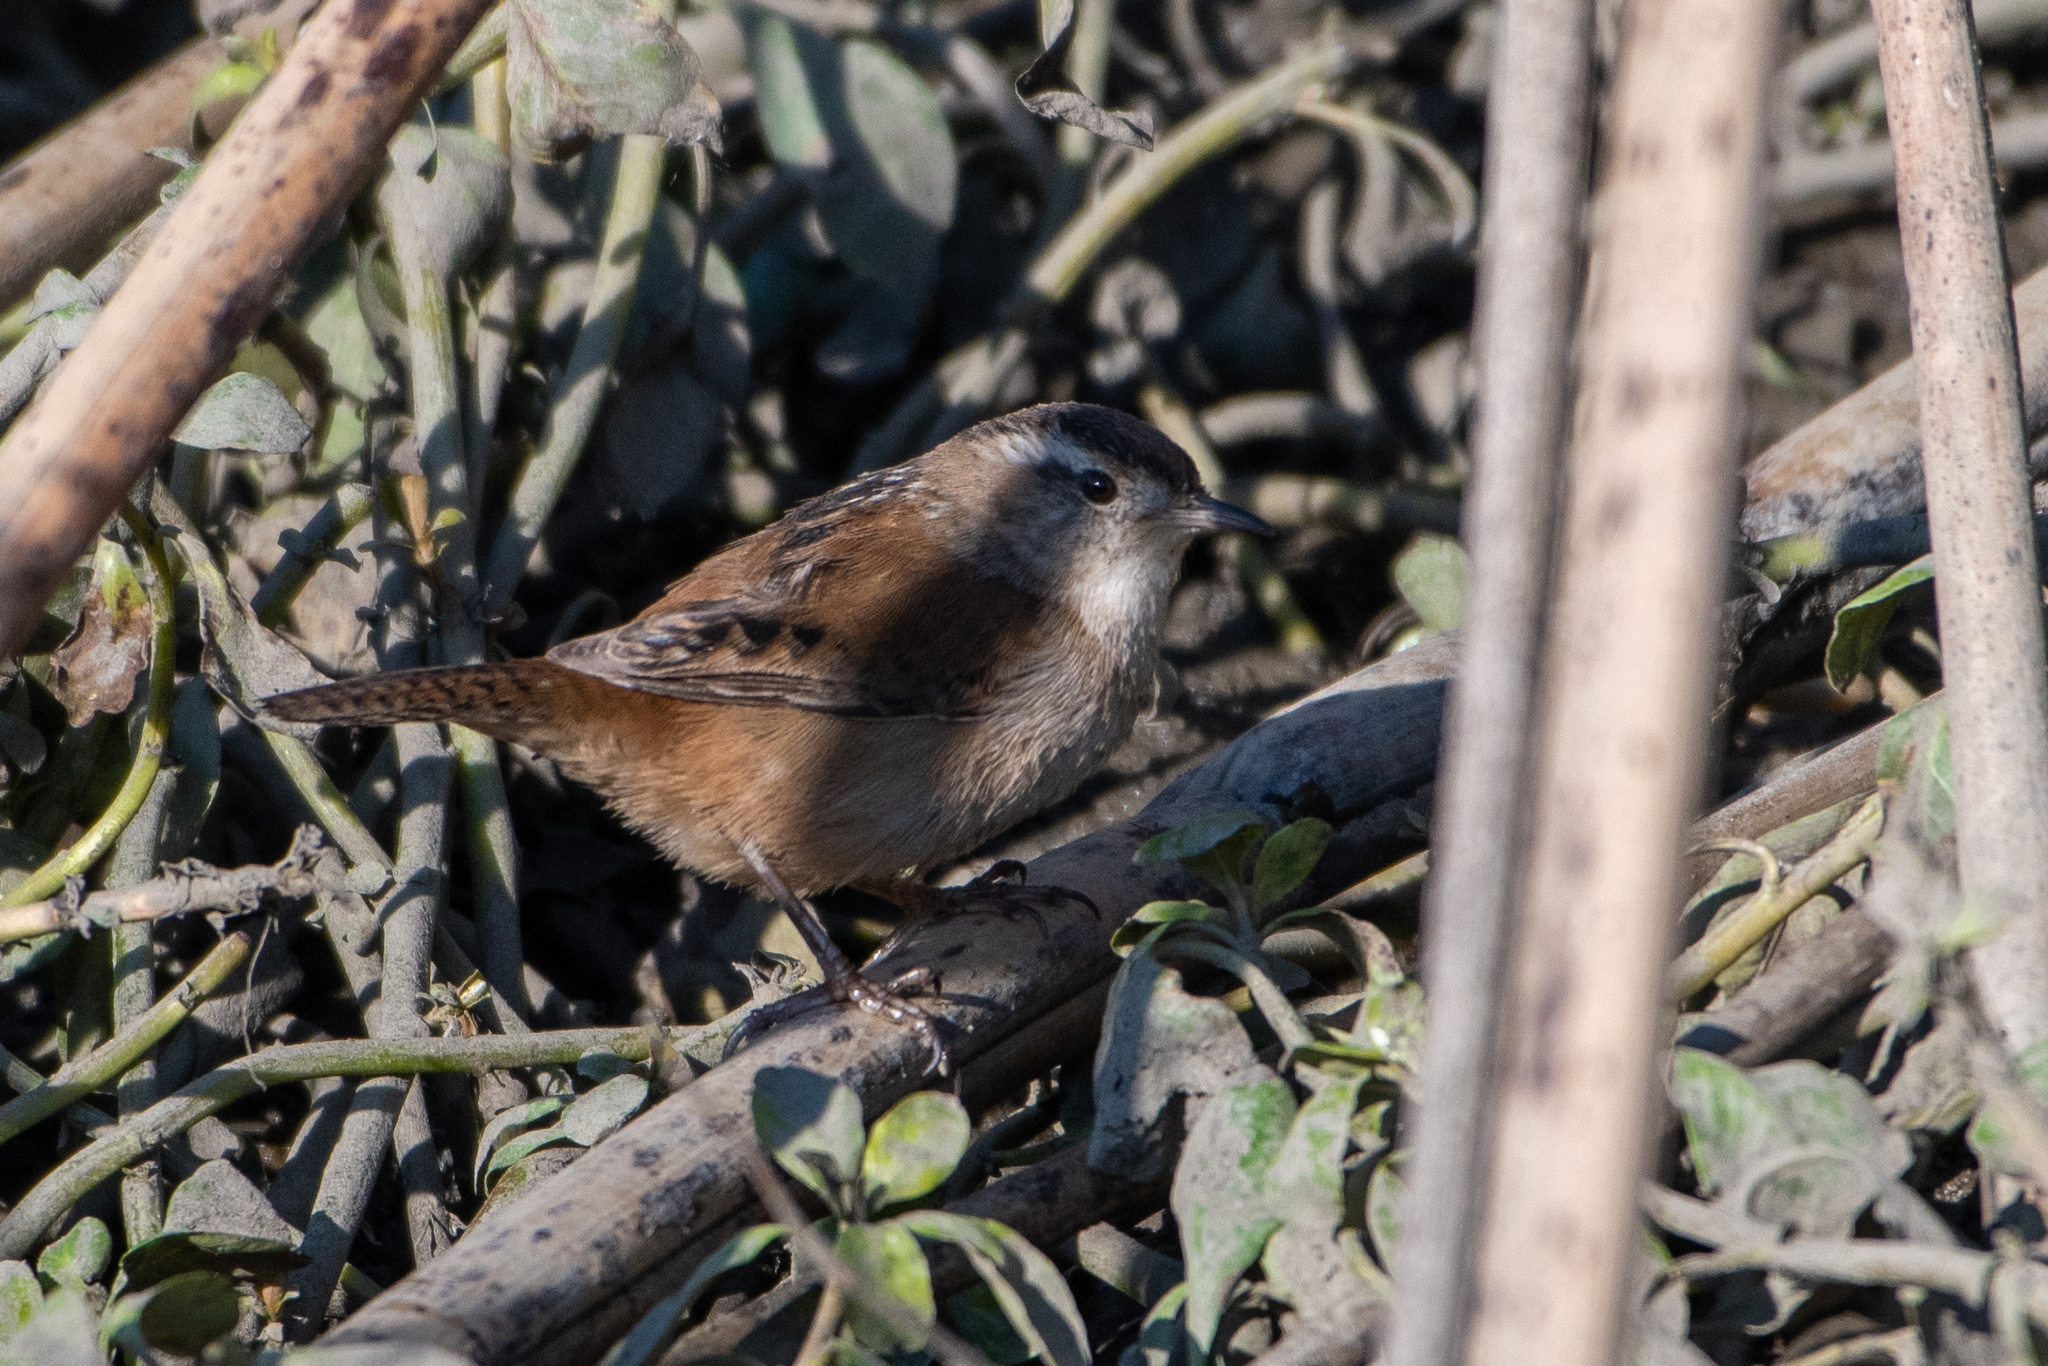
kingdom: Animalia
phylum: Chordata
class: Aves
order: Passeriformes
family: Troglodytidae
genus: Cistothorus
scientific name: Cistothorus palustris
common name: Marsh wren
